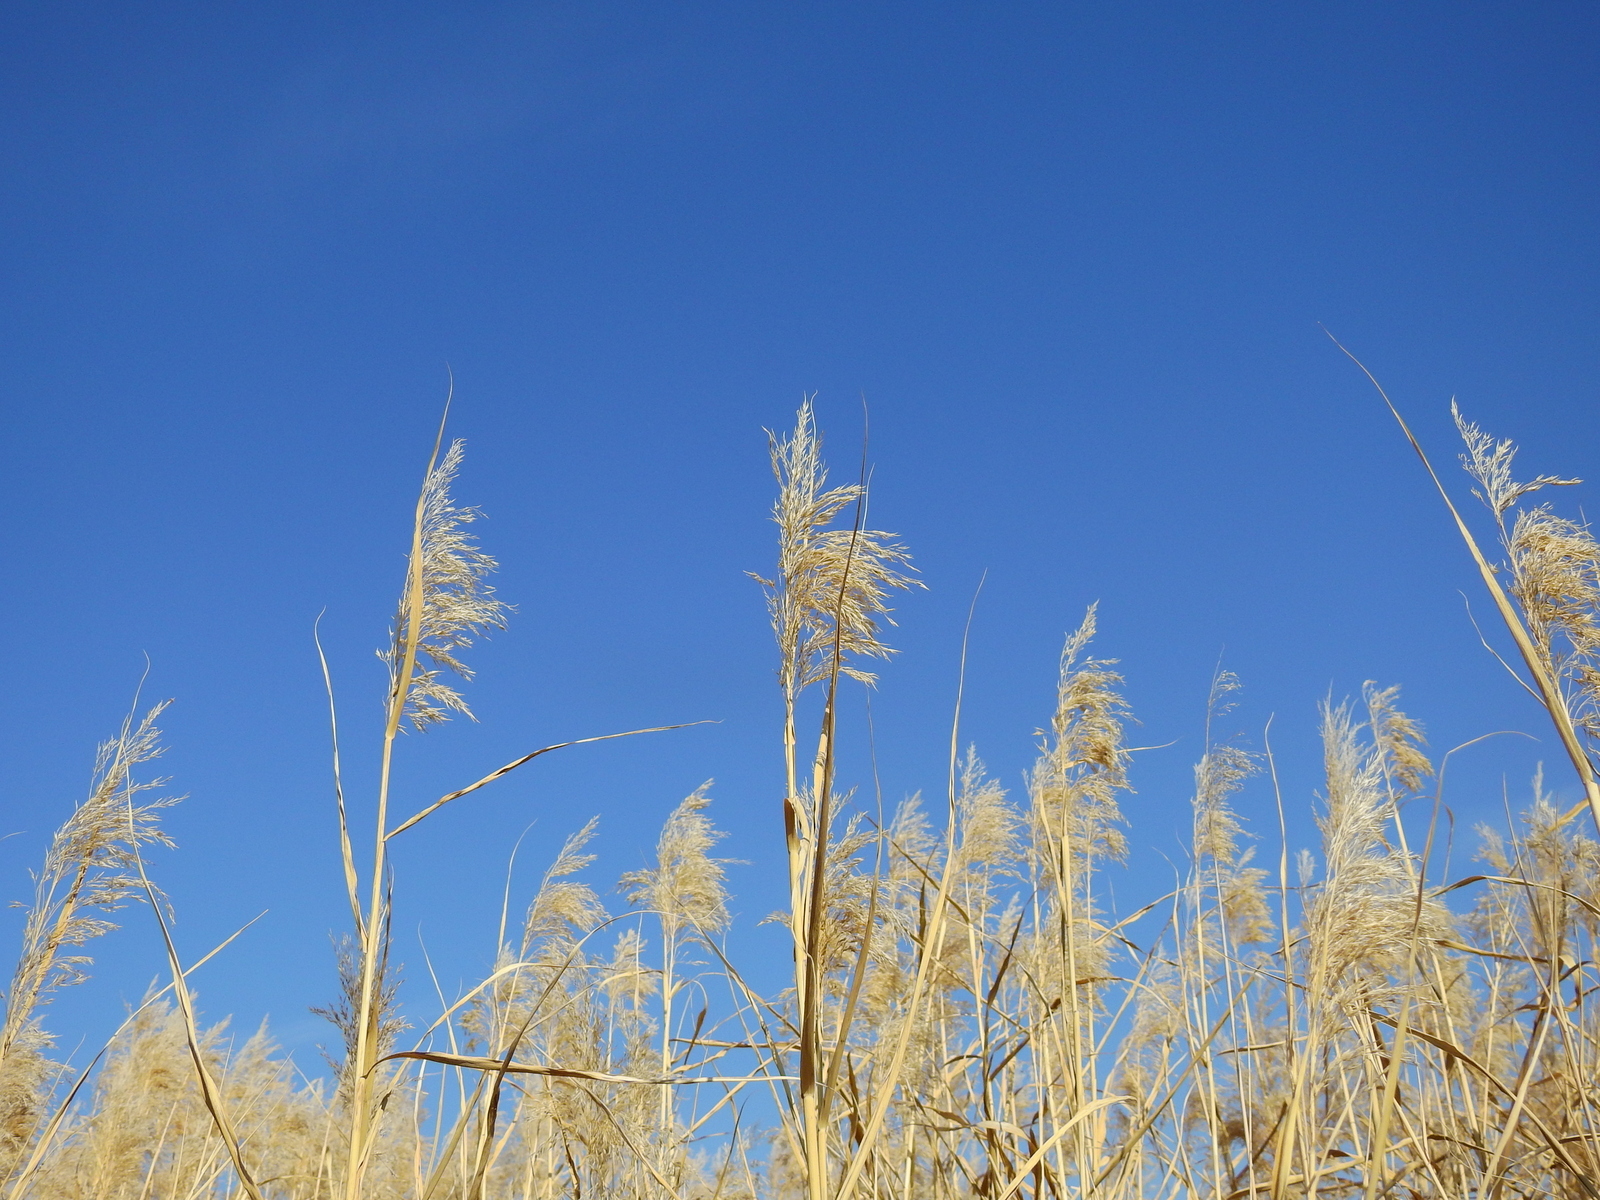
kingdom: Plantae
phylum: Tracheophyta
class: Liliopsida
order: Poales
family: Poaceae
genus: Phragmites
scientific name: Phragmites australis
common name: Common reed
